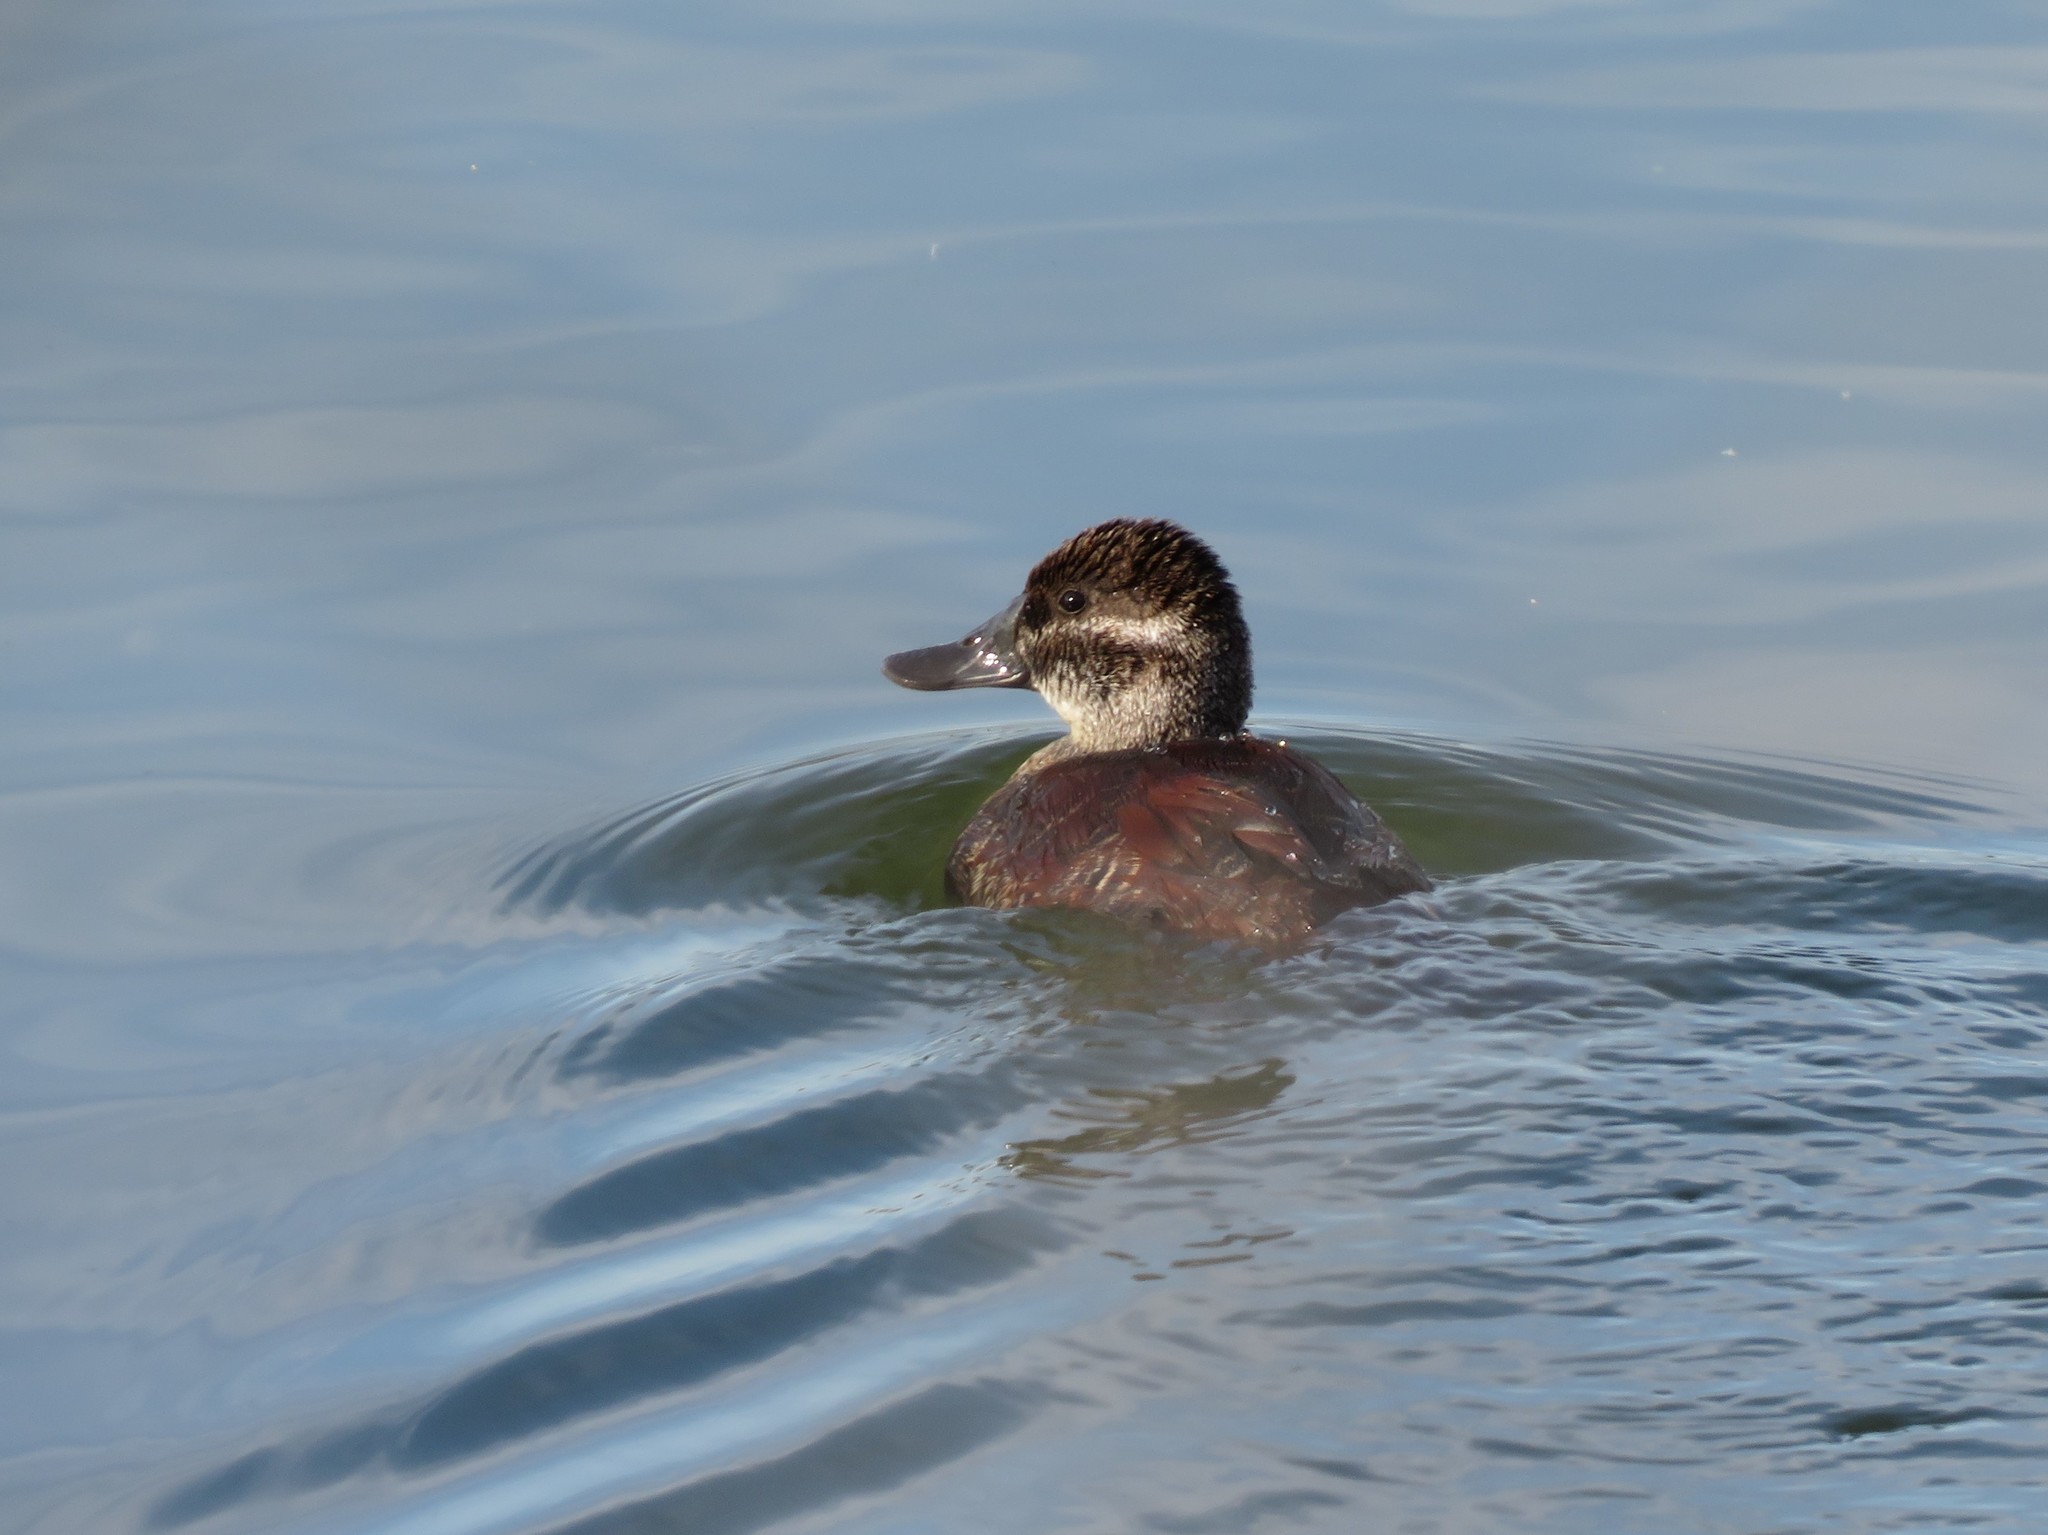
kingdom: Animalia
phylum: Chordata
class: Aves
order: Anseriformes
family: Anatidae
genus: Oxyura
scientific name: Oxyura vittata
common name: Lake duck
